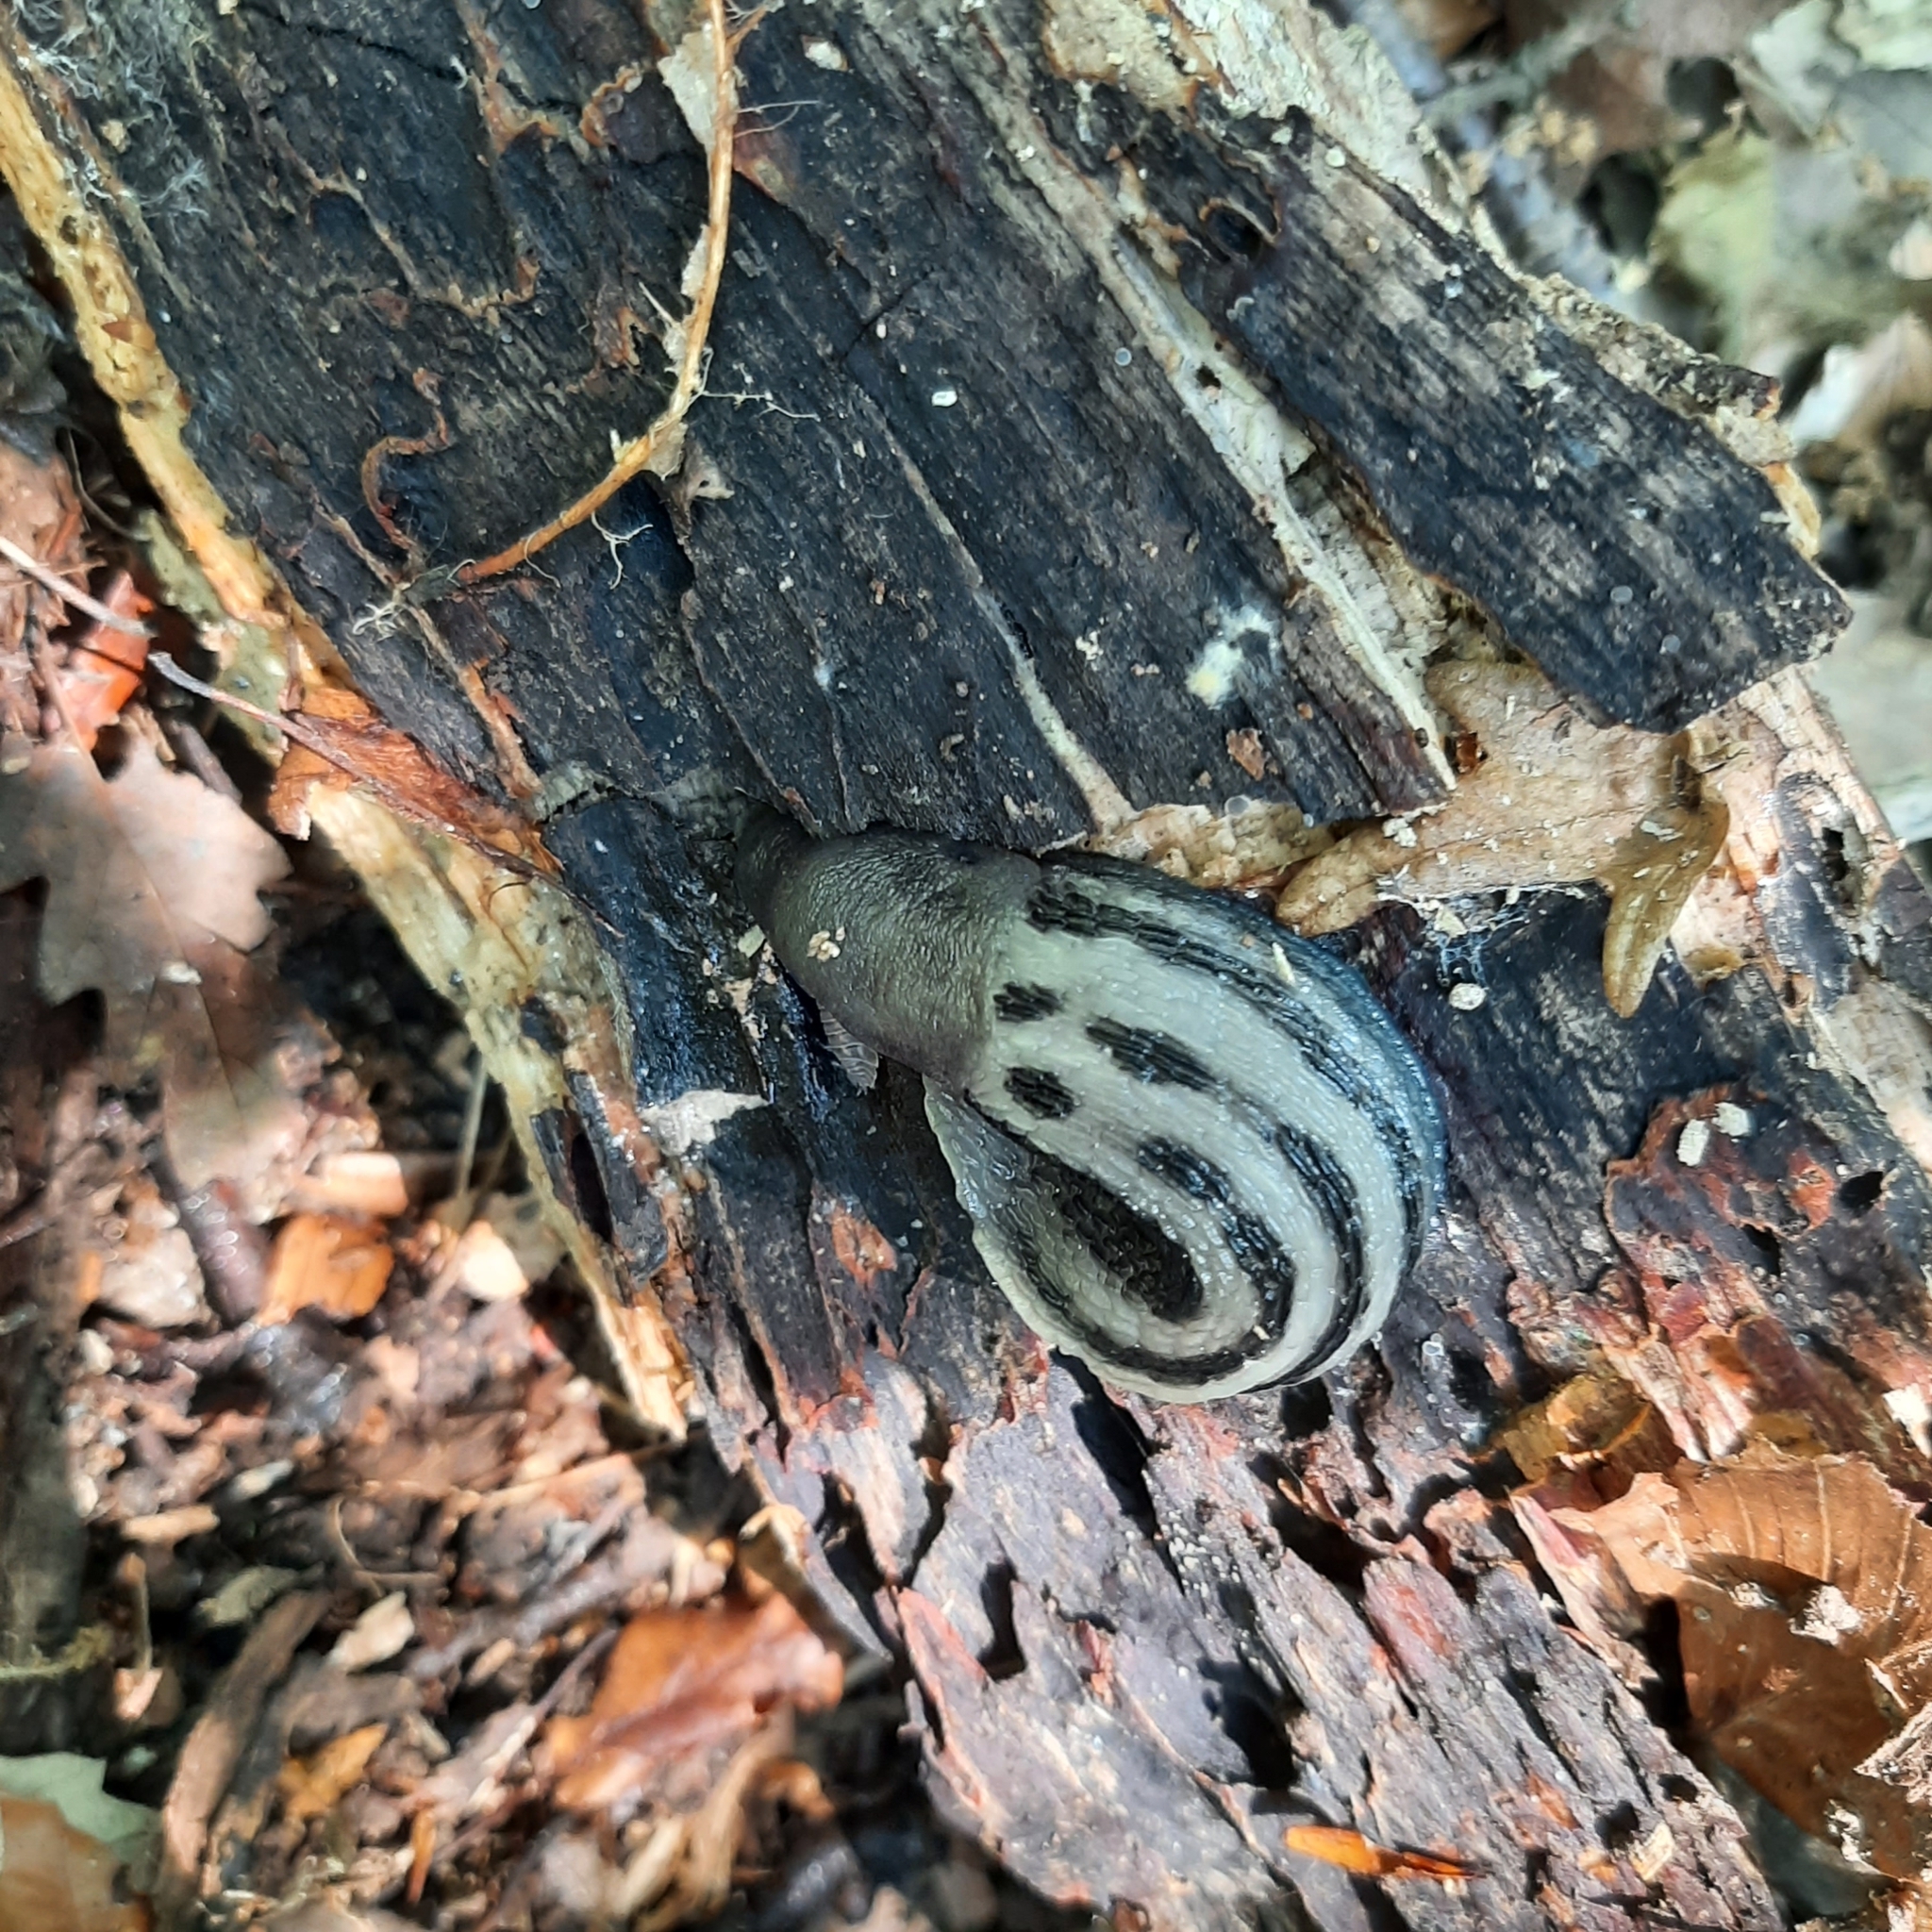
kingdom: Animalia
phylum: Mollusca
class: Gastropoda
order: Stylommatophora
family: Limacidae
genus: Limax
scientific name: Limax cinereoniger
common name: Ash-black slug
